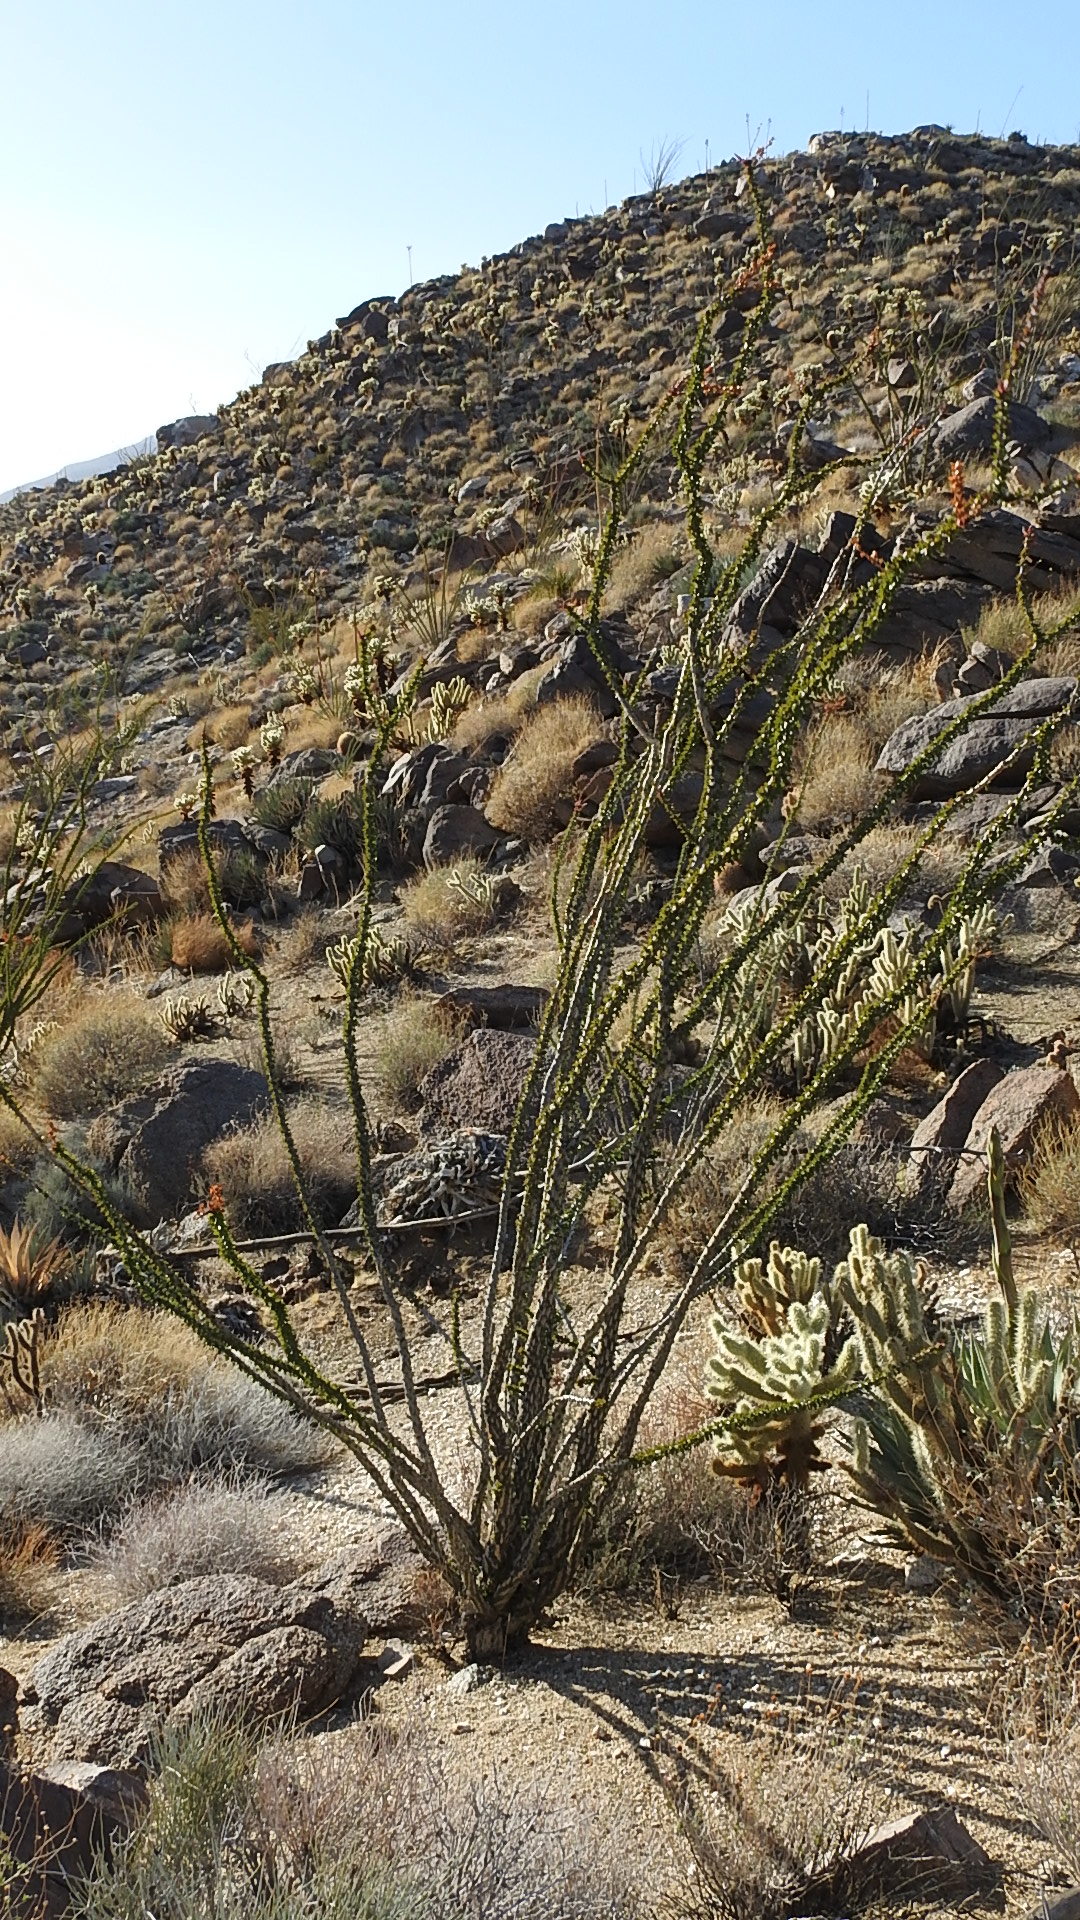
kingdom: Plantae
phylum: Tracheophyta
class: Magnoliopsida
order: Ericales
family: Fouquieriaceae
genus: Fouquieria
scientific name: Fouquieria splendens
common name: Vine-cactus
